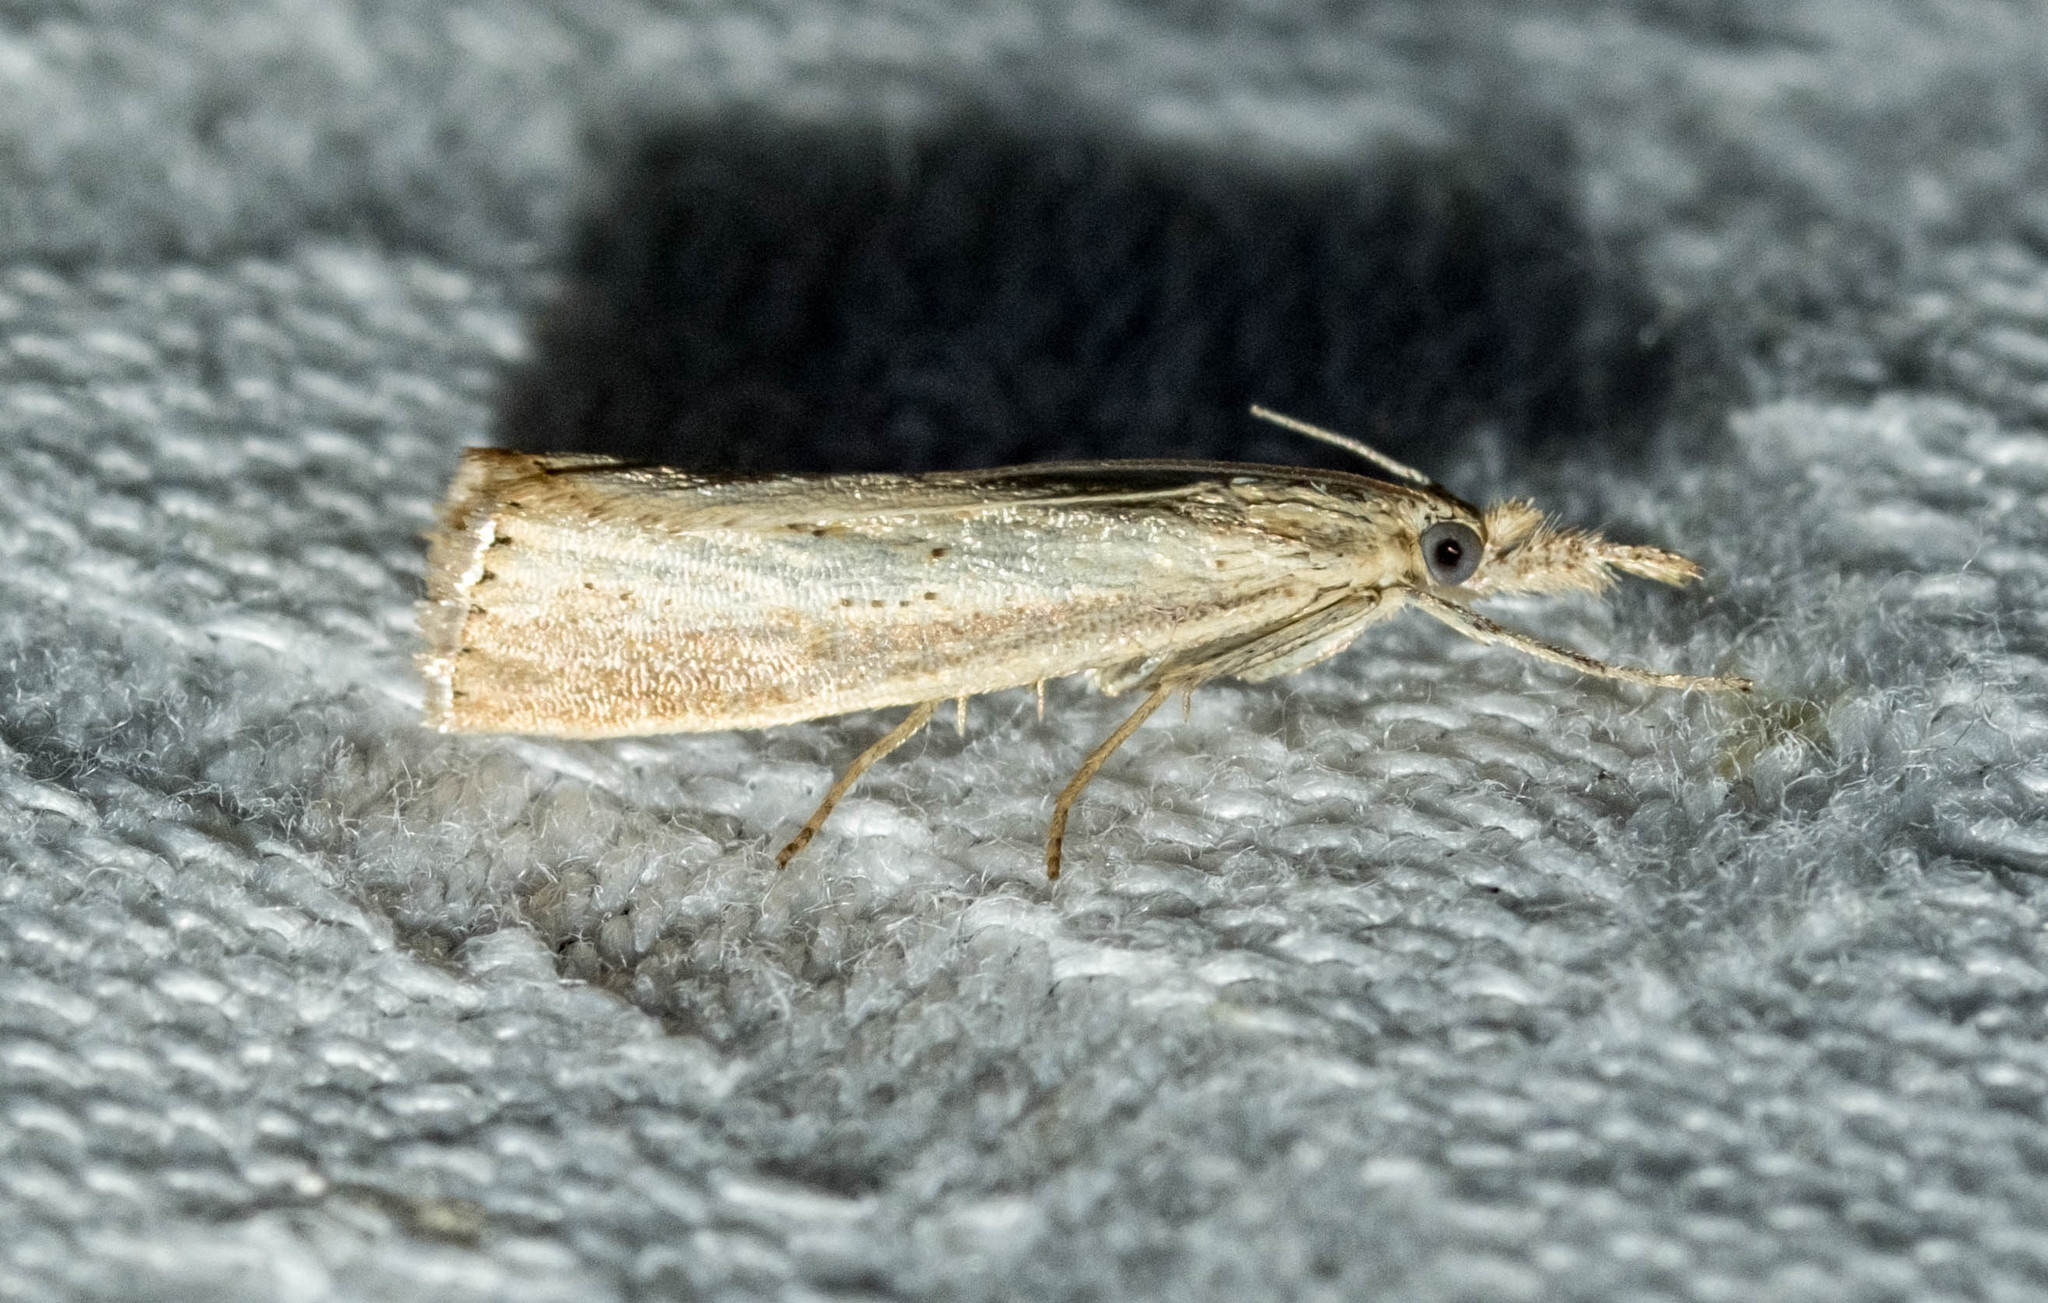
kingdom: Animalia
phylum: Arthropoda
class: Insecta
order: Lepidoptera
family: Crambidae
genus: Agriphila
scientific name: Agriphila straminella
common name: Straw grass-veneer
